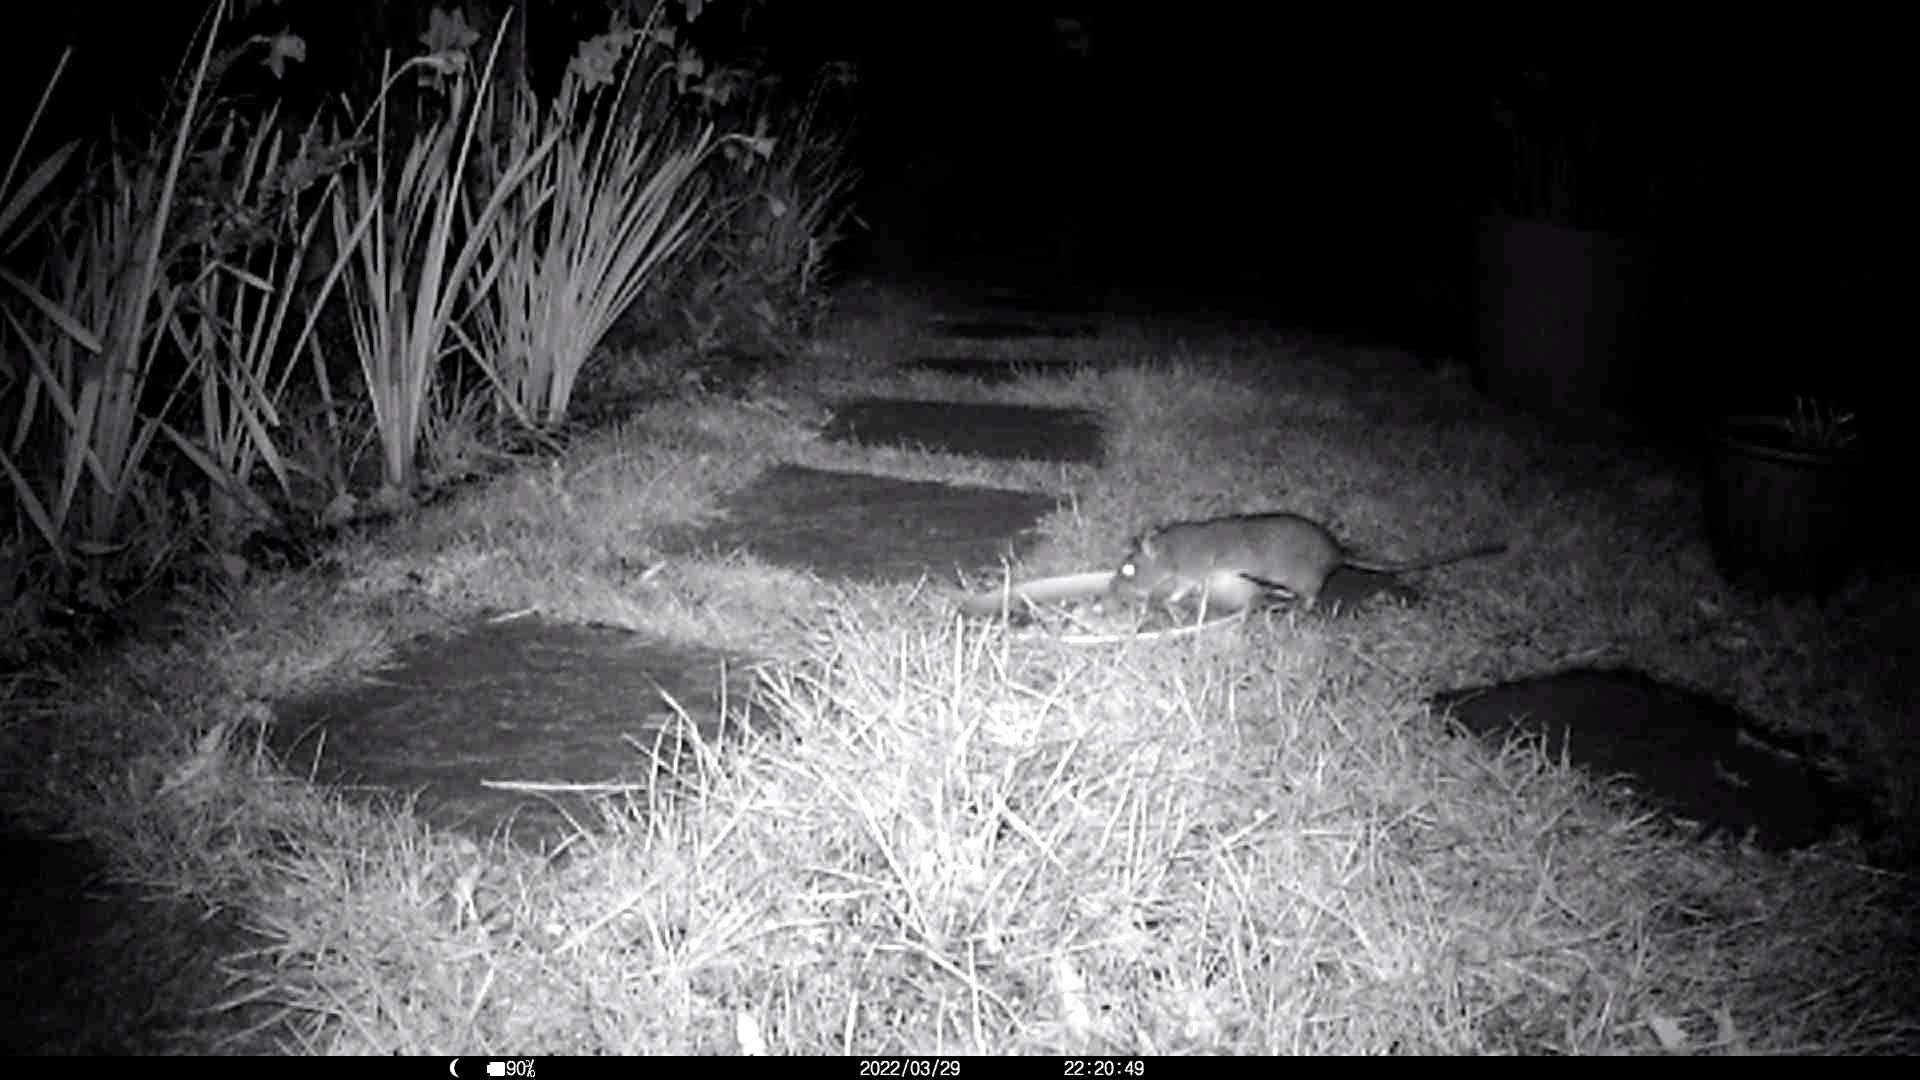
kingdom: Animalia
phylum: Chordata
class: Mammalia
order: Rodentia
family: Muridae
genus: Rattus
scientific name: Rattus norvegicus
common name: Brown rat
